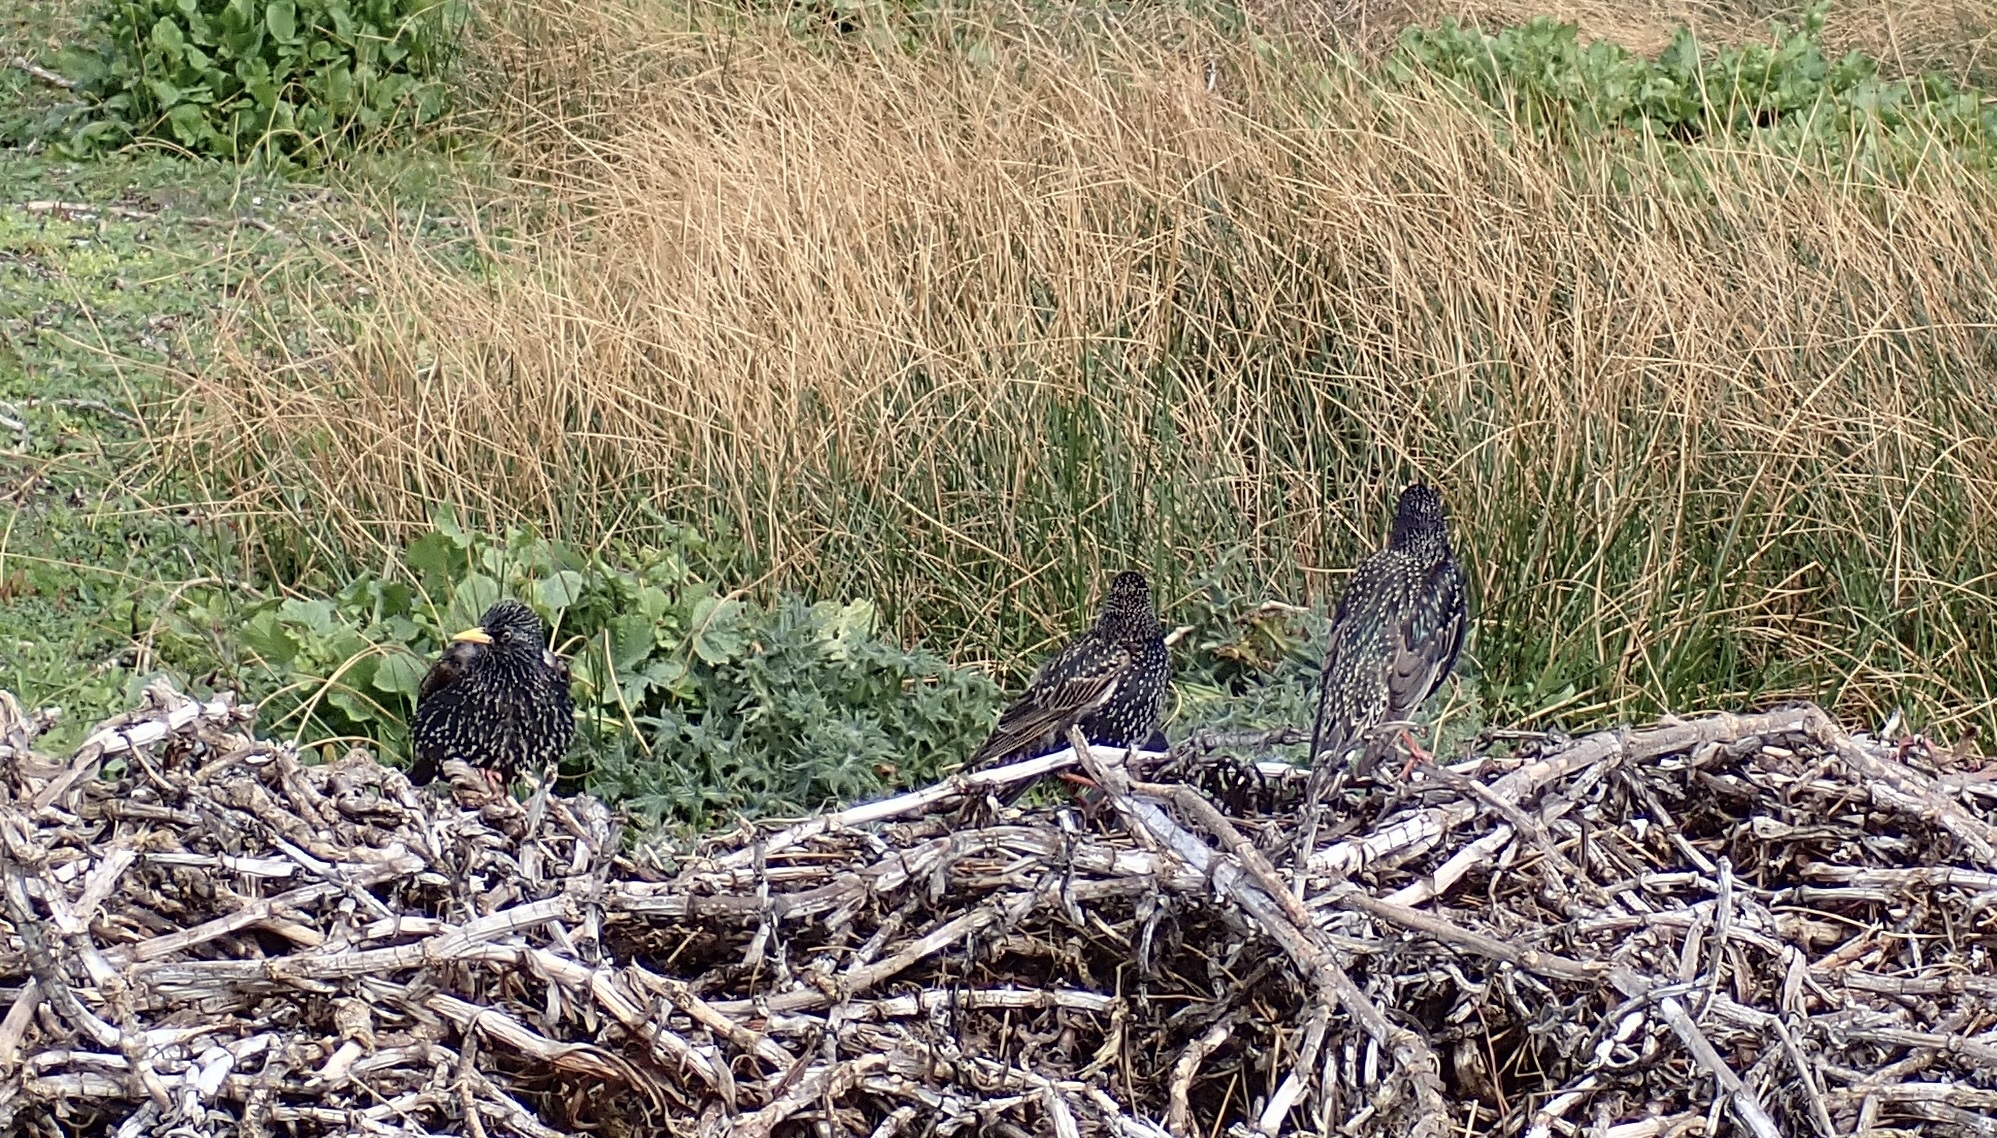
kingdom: Animalia
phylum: Chordata
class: Aves
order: Passeriformes
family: Sturnidae
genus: Sturnus
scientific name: Sturnus vulgaris
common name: Common starling
